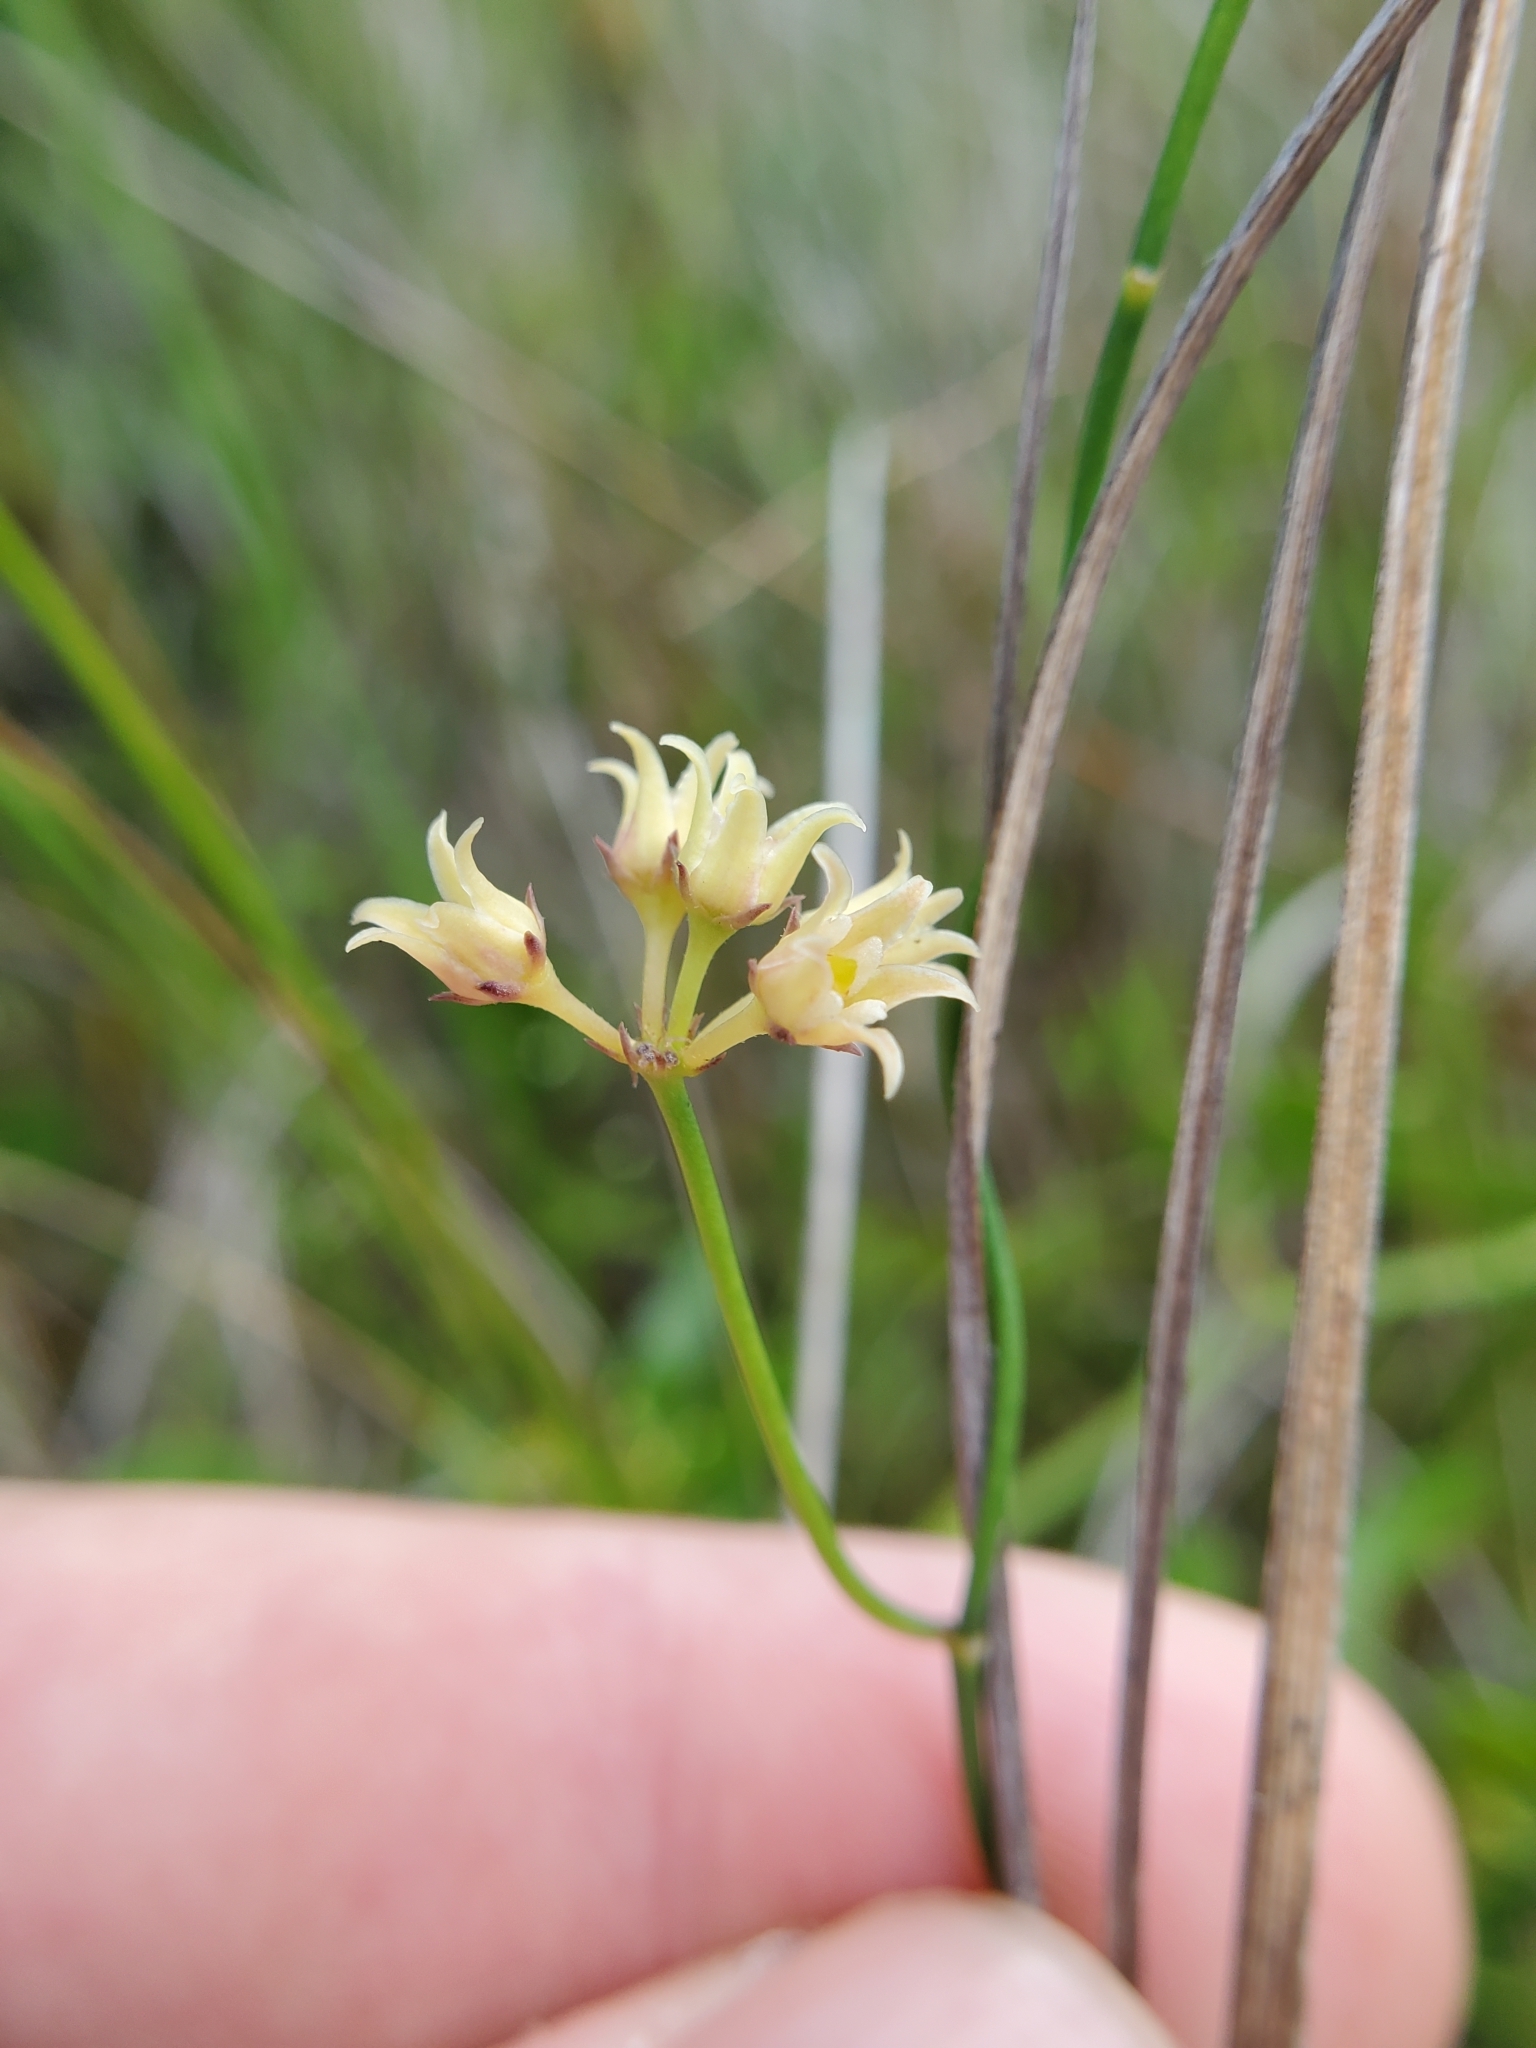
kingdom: Plantae
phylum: Tracheophyta
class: Magnoliopsida
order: Gentianales
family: Apocynaceae
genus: Pattalias
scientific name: Pattalias
